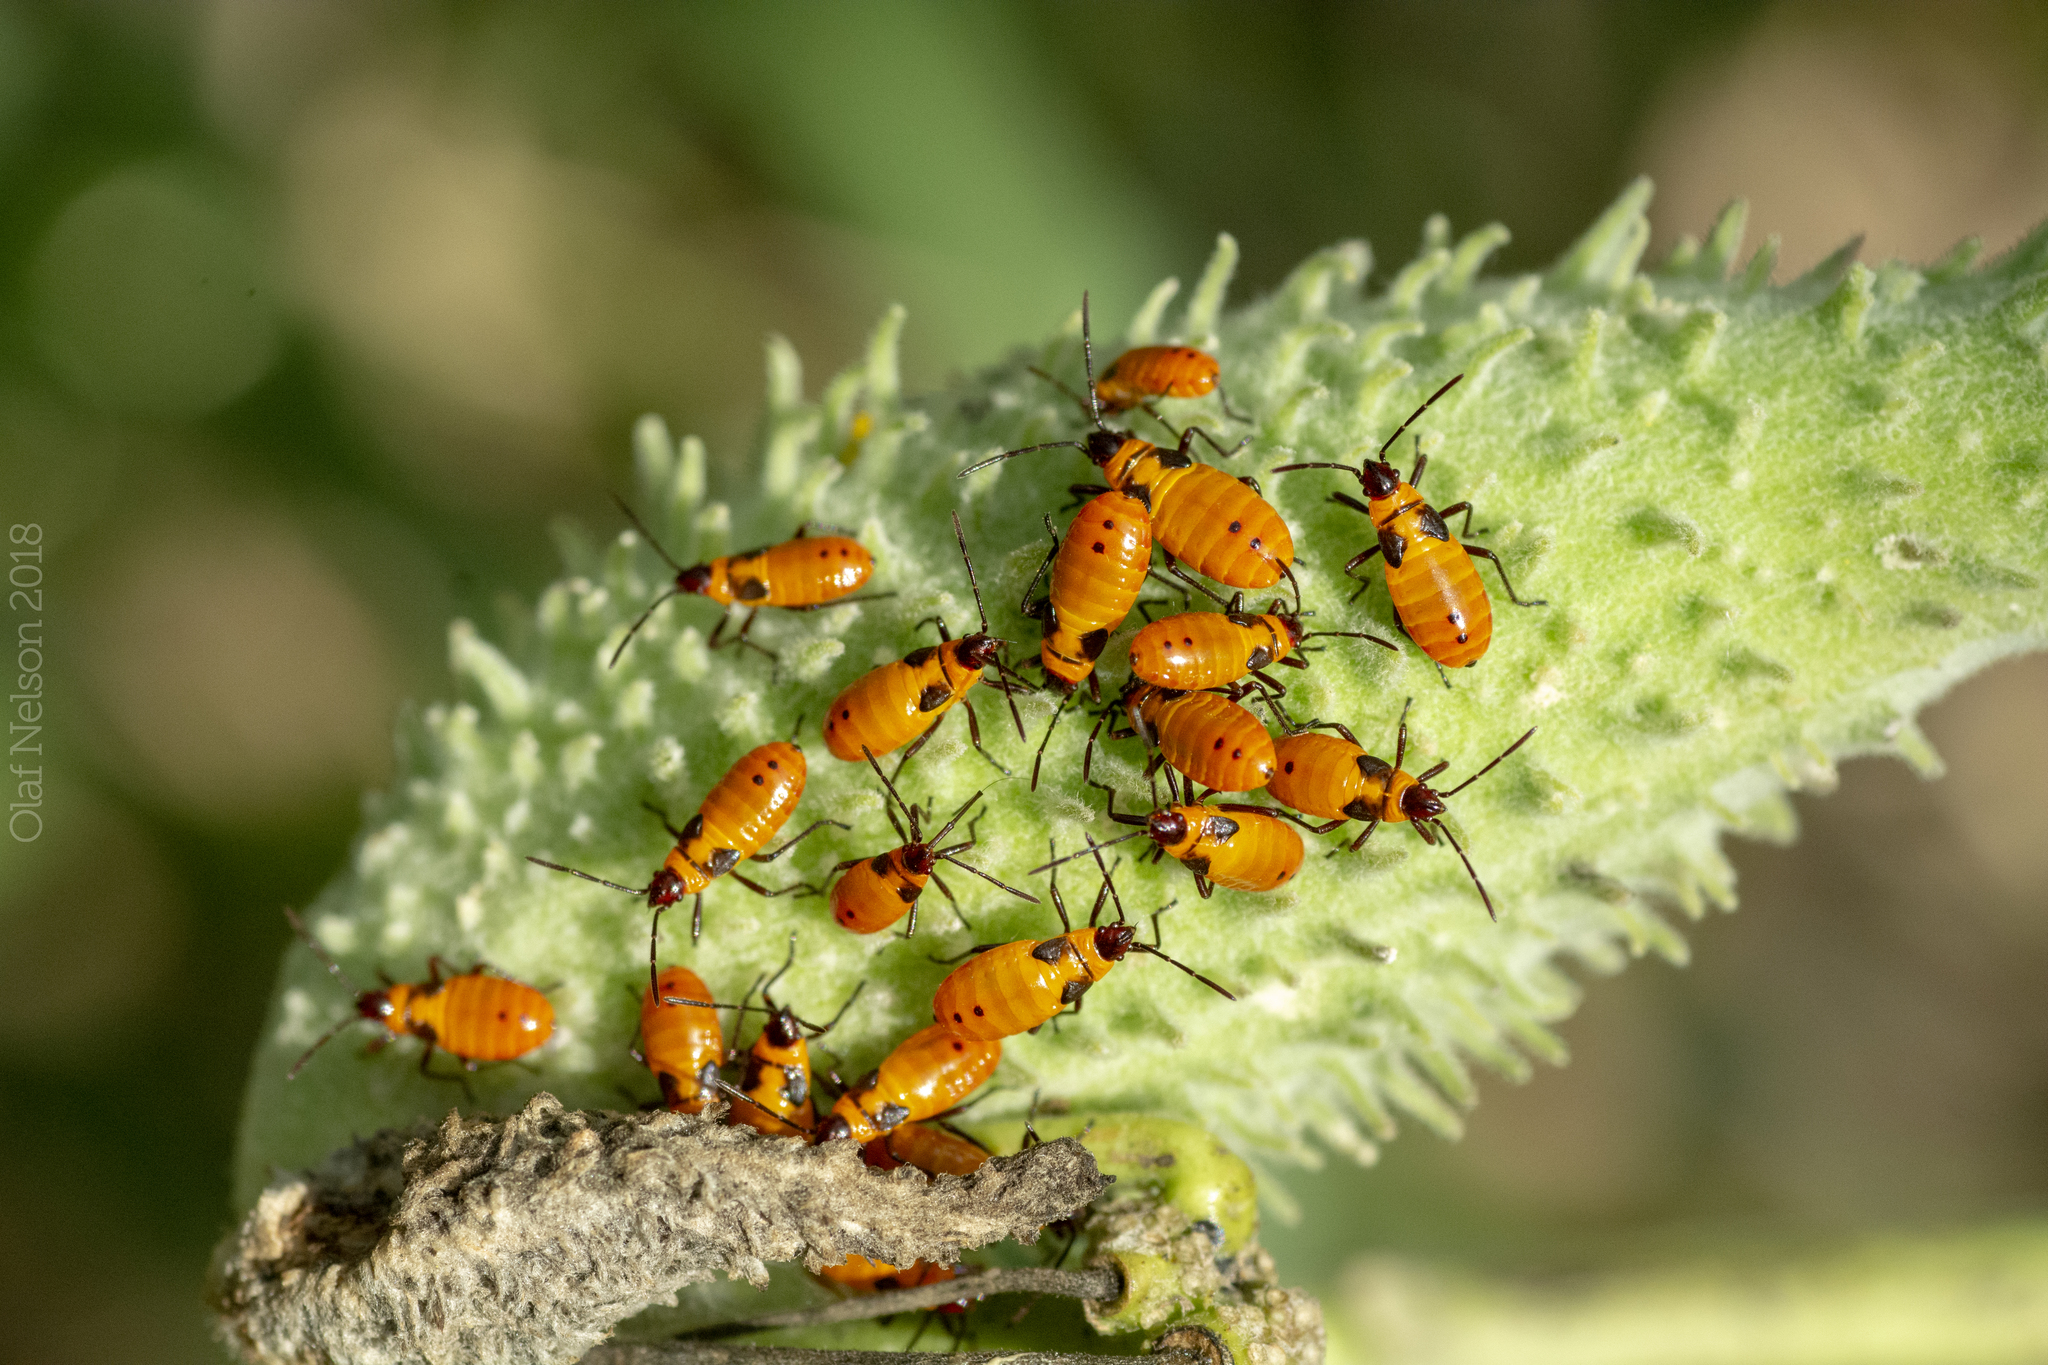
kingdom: Animalia
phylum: Arthropoda
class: Insecta
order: Hemiptera
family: Lygaeidae
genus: Oncopeltus
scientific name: Oncopeltus fasciatus
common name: Large milkweed bug
